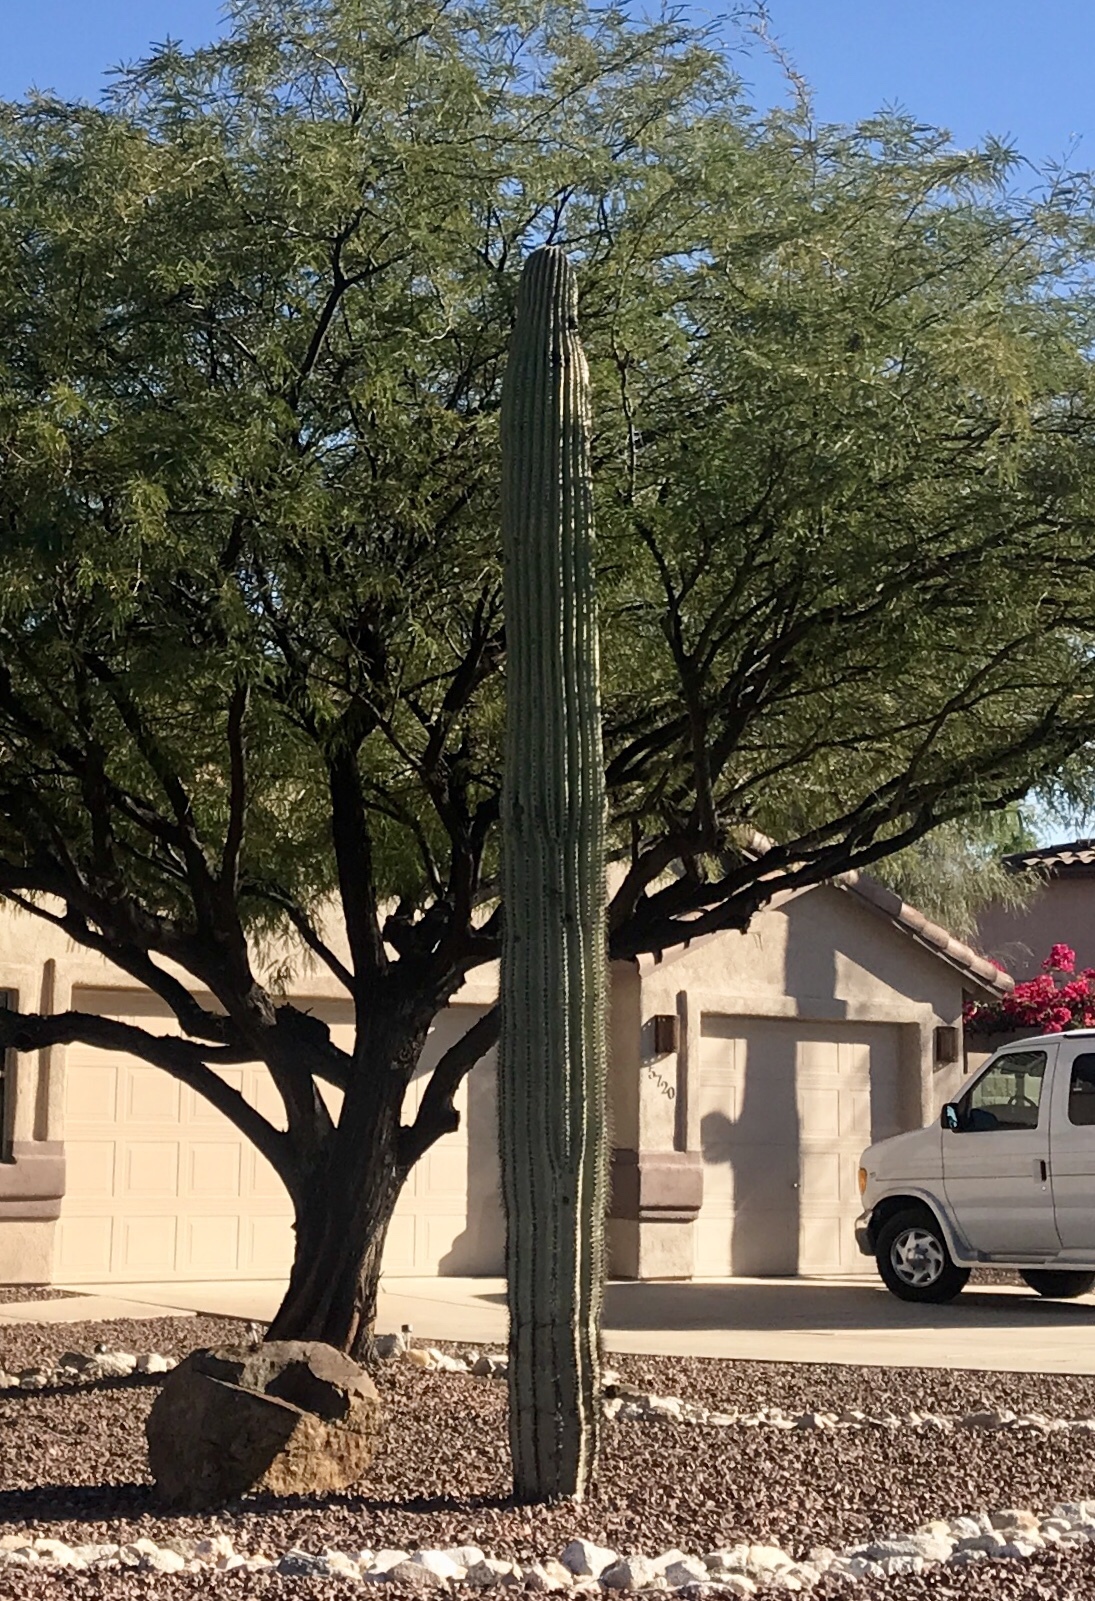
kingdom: Plantae
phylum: Tracheophyta
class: Magnoliopsida
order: Caryophyllales
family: Cactaceae
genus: Carnegiea
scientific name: Carnegiea gigantea
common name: Saguaro
